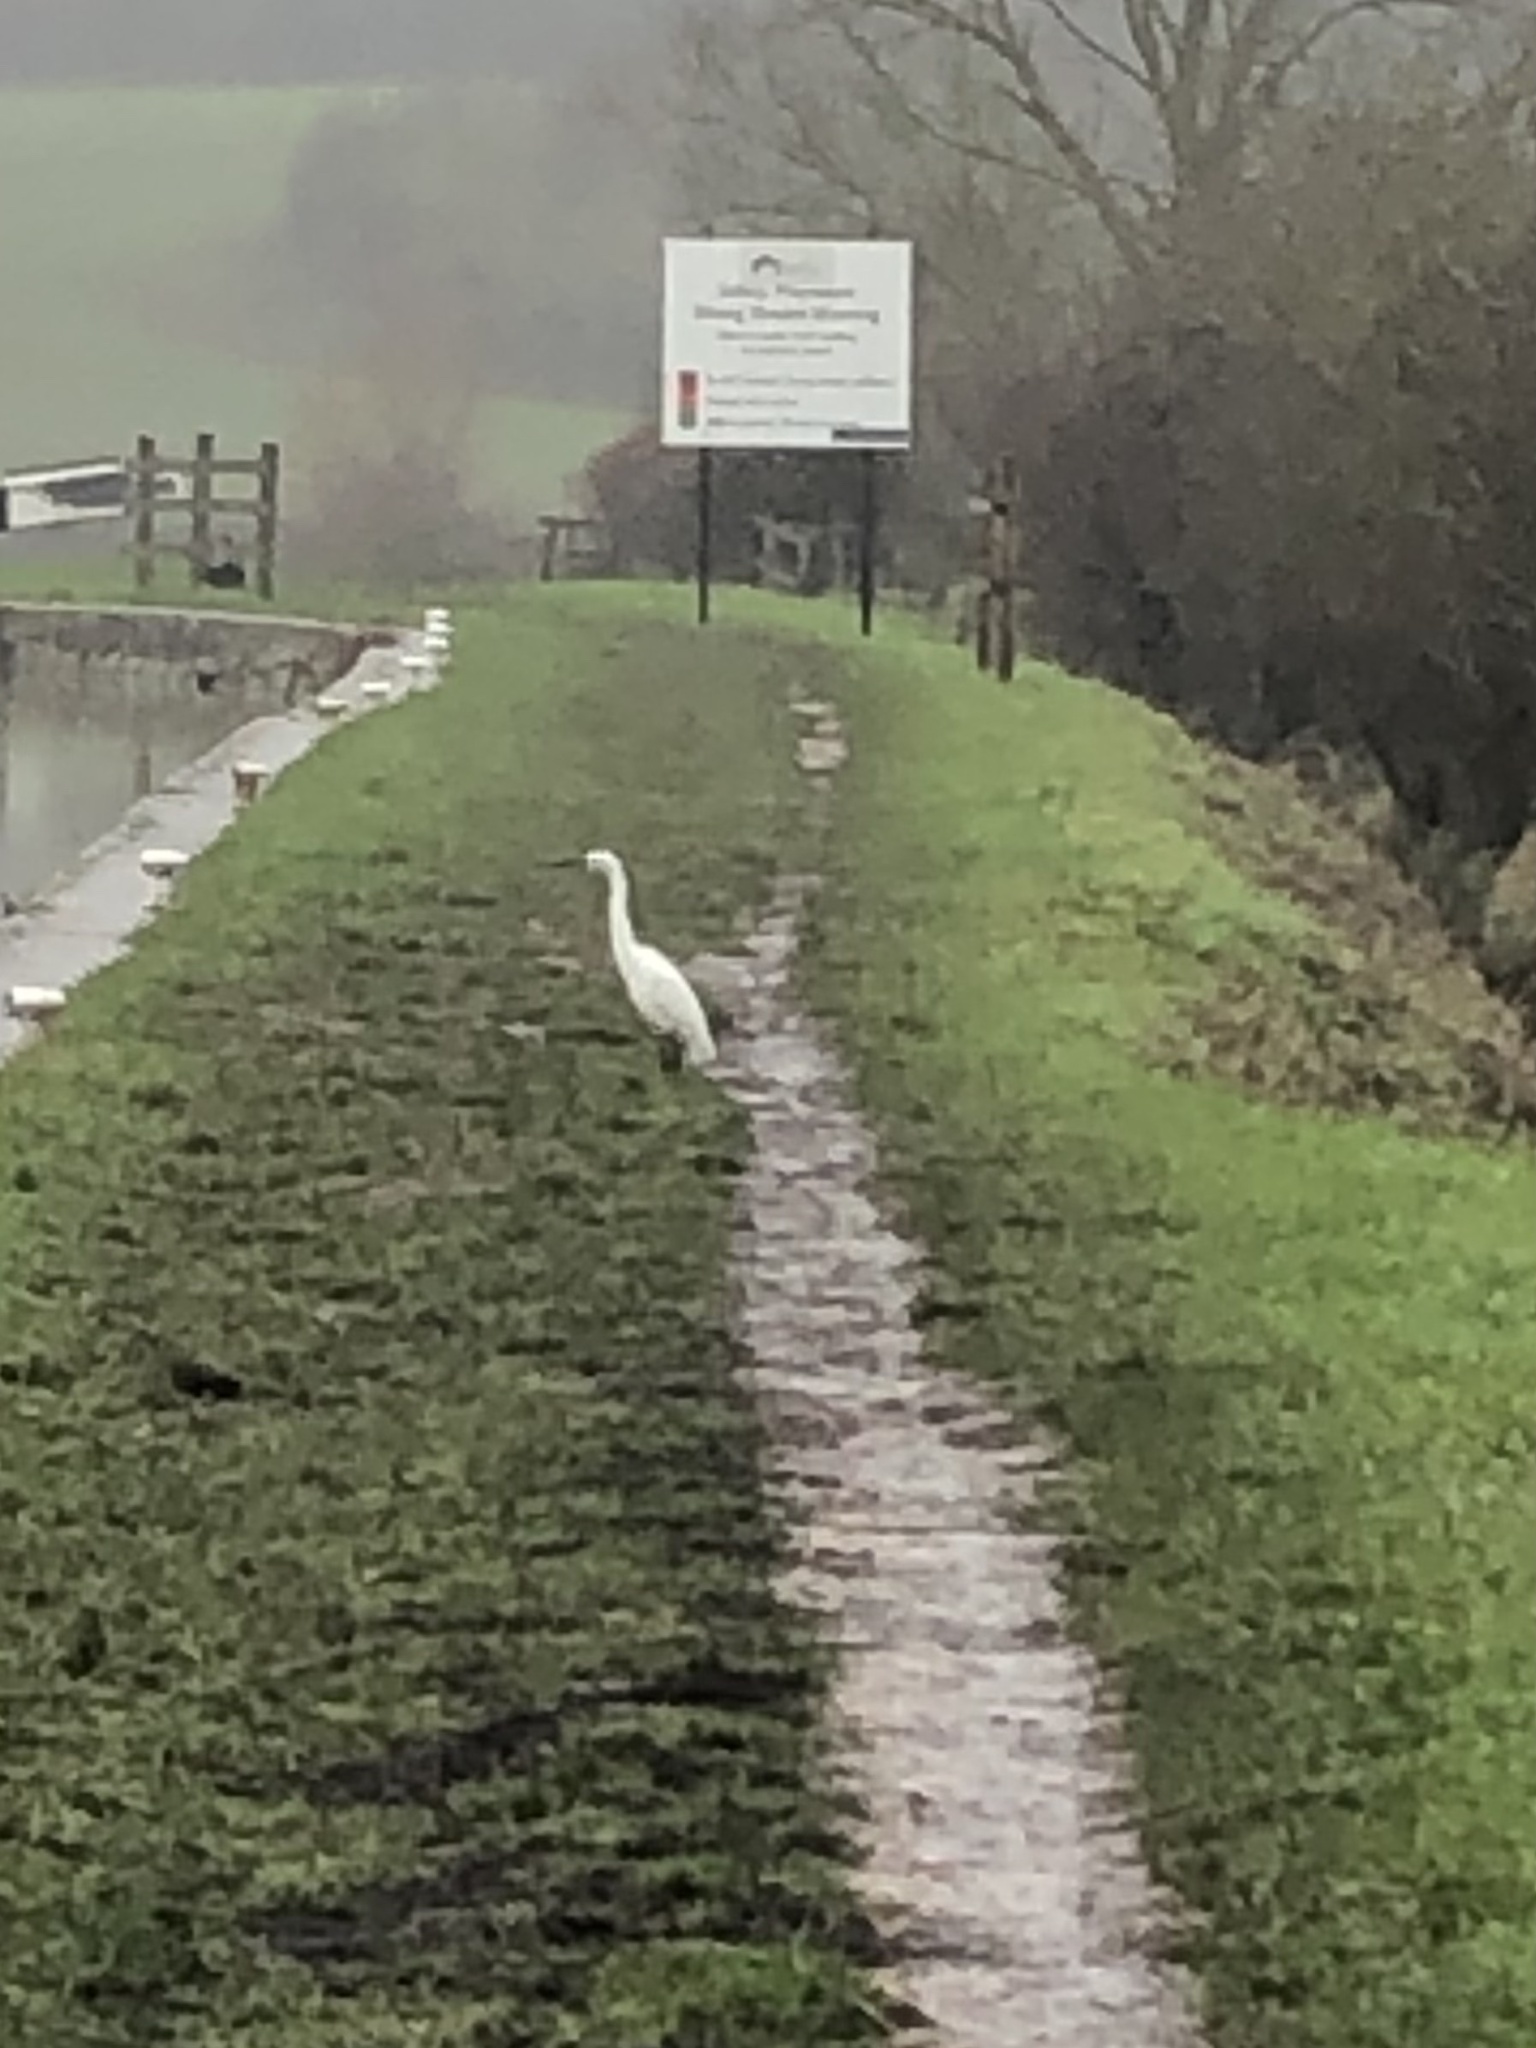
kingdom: Animalia
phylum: Chordata
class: Aves
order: Pelecaniformes
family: Ardeidae
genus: Egretta
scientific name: Egretta garzetta
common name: Little egret
